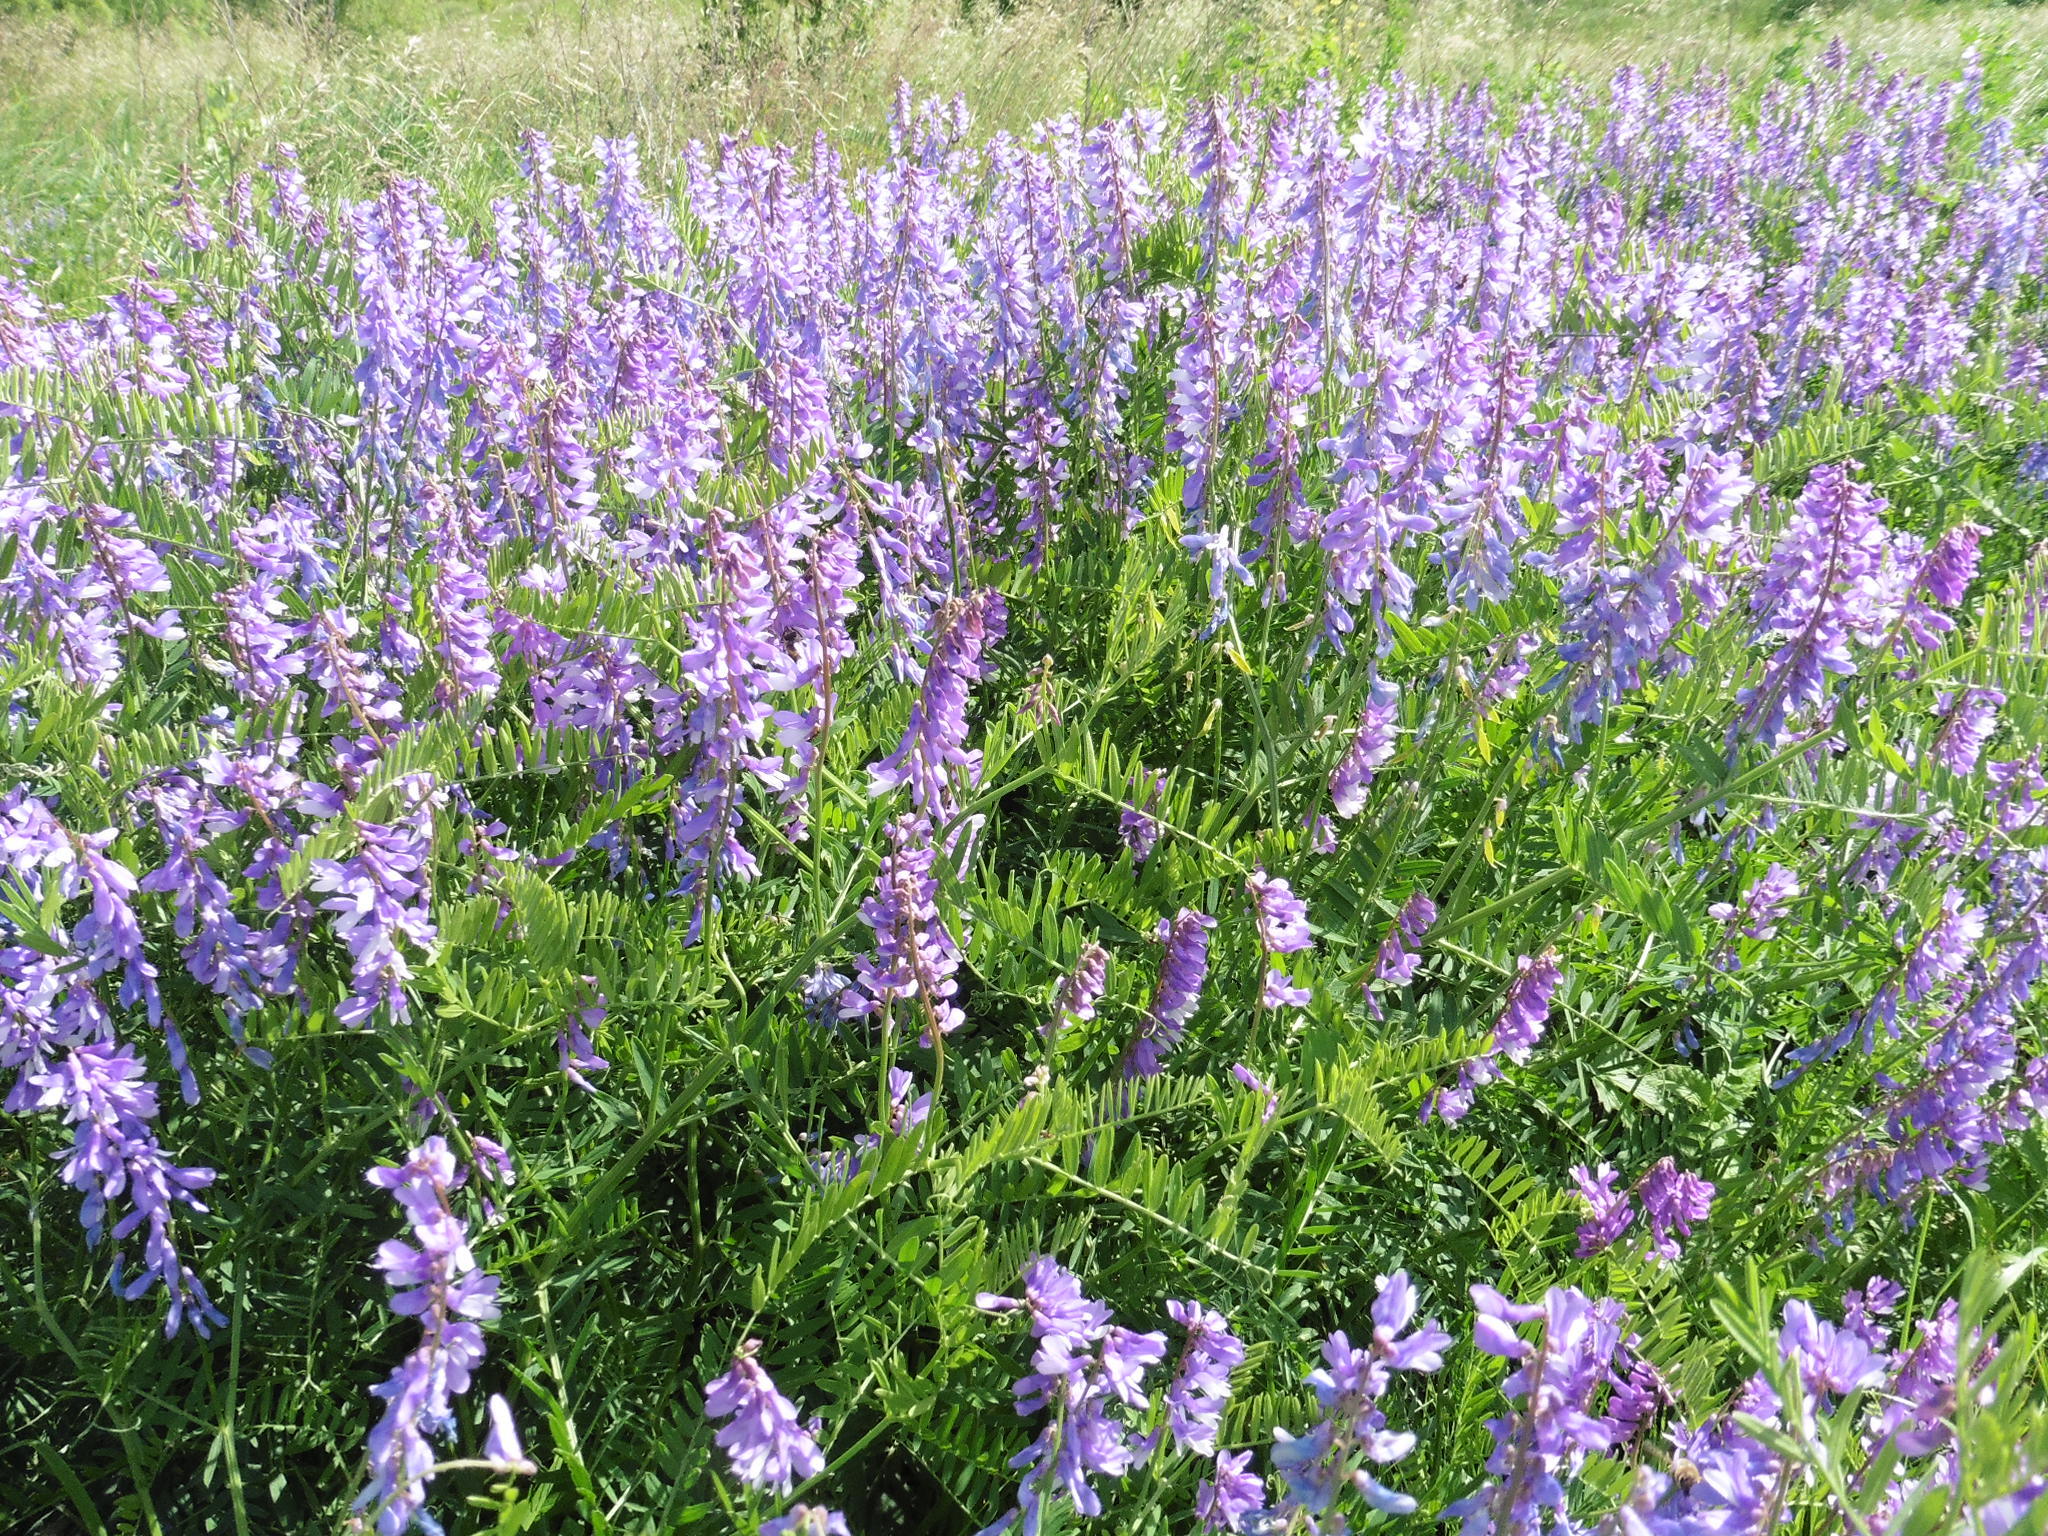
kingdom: Plantae
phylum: Tracheophyta
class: Magnoliopsida
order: Fabales
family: Fabaceae
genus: Vicia
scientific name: Vicia tenuifolia
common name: Fine-leaved vetch
